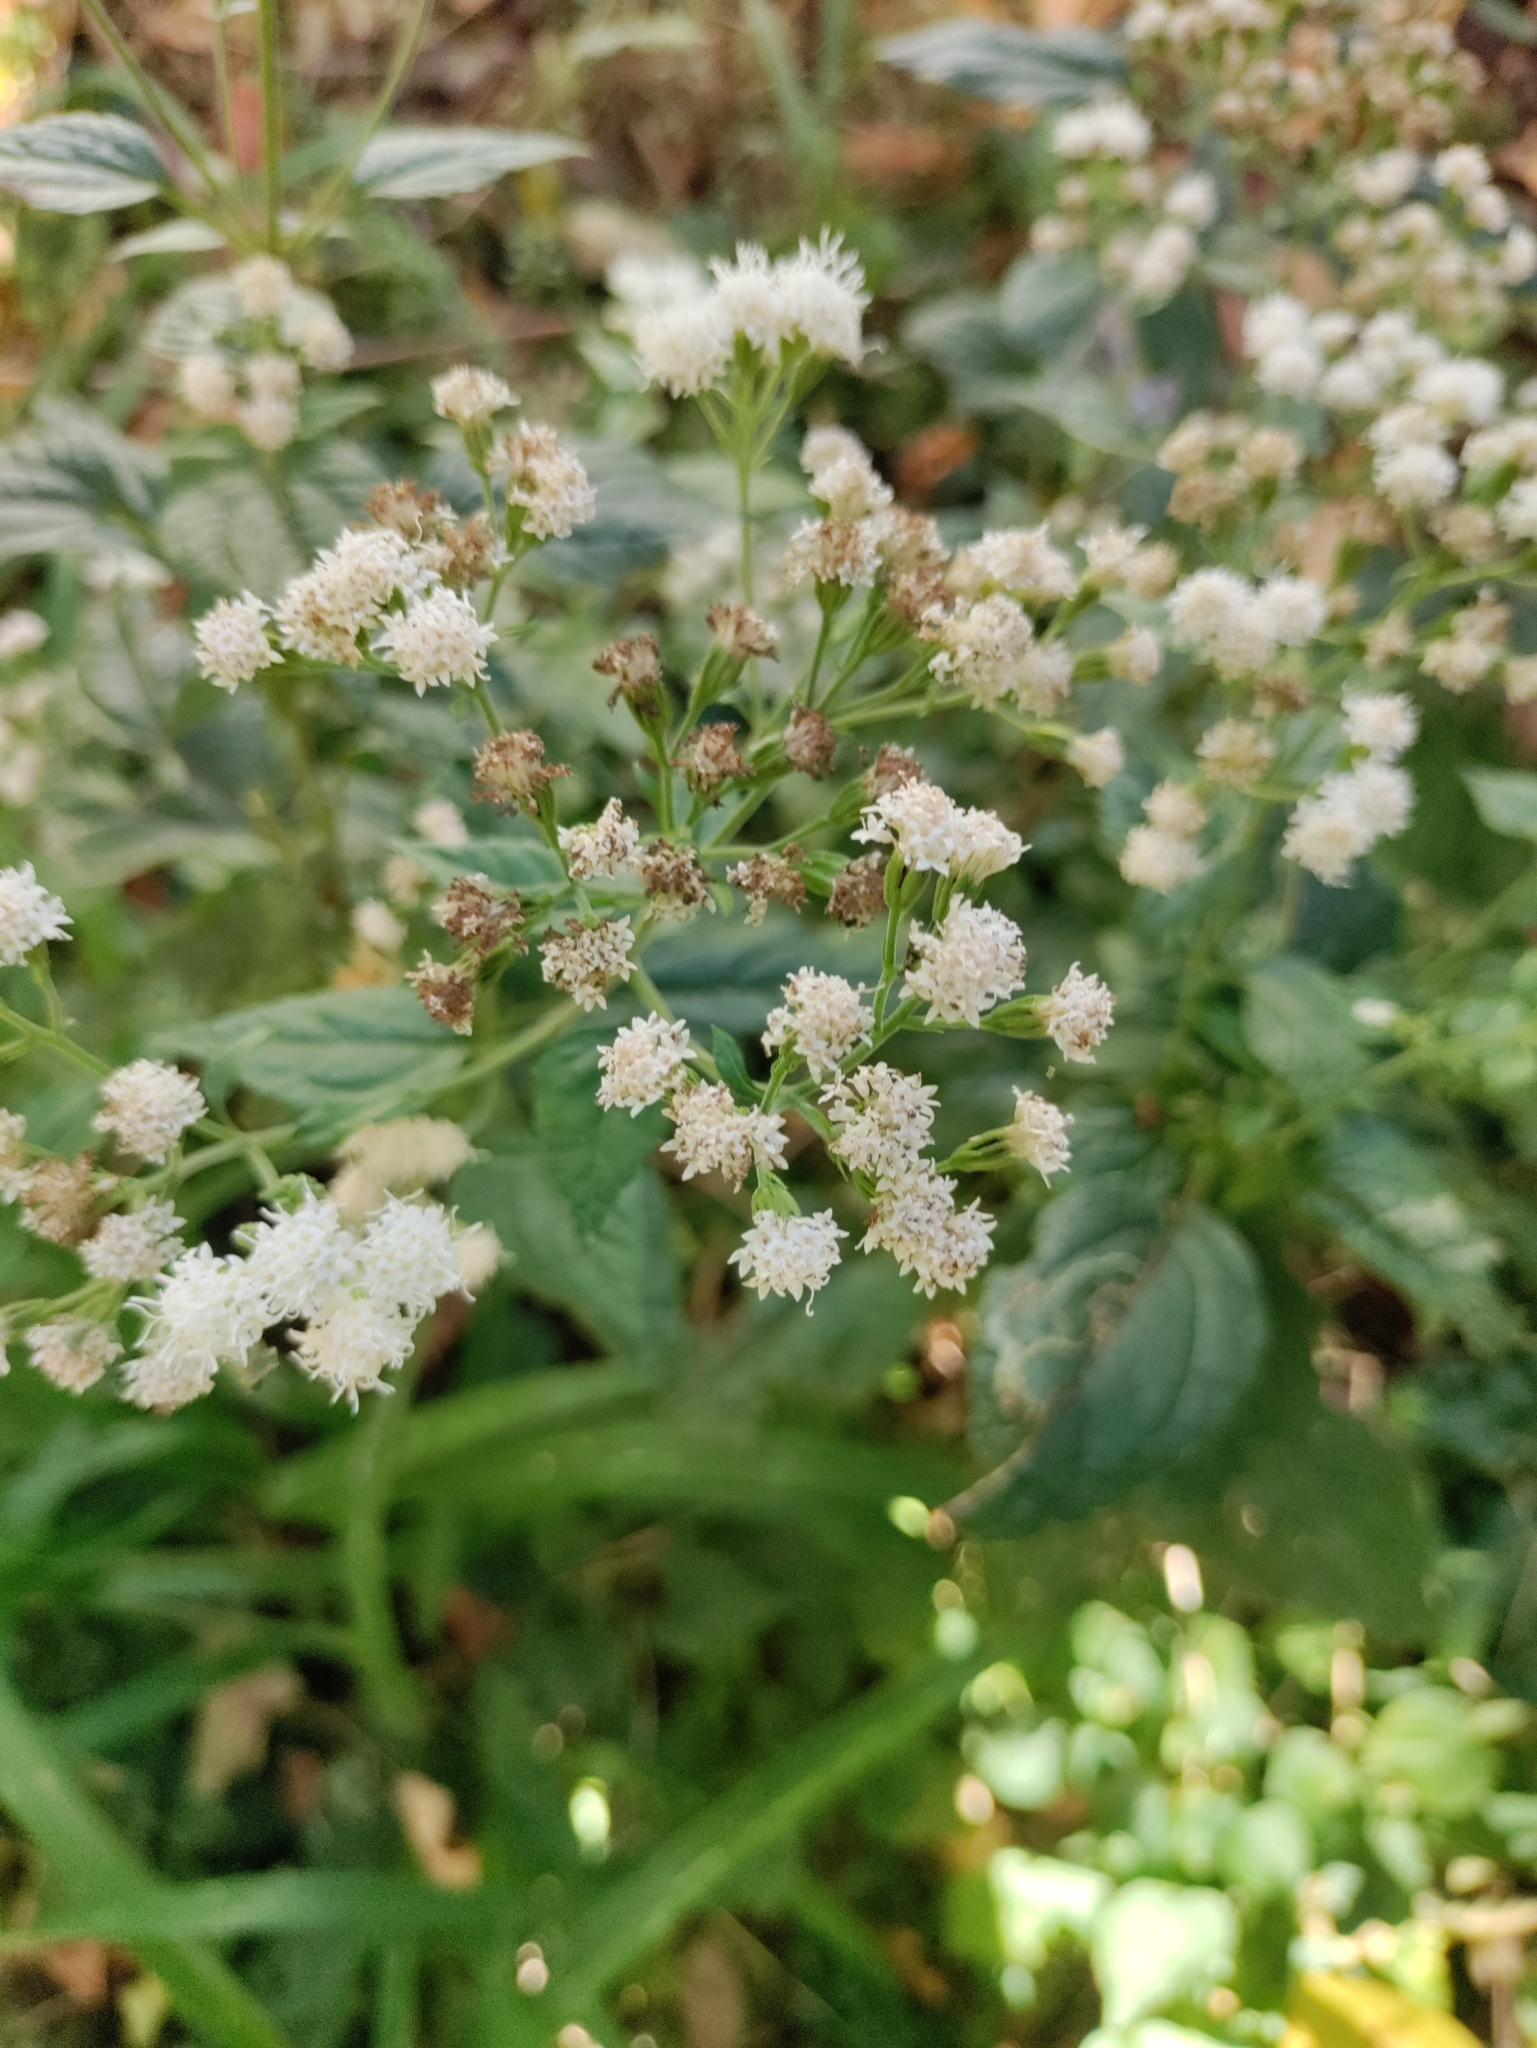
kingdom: Plantae
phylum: Tracheophyta
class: Magnoliopsida
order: Asterales
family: Asteraceae
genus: Ageratina
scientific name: Ageratina altissima
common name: White snakeroot
